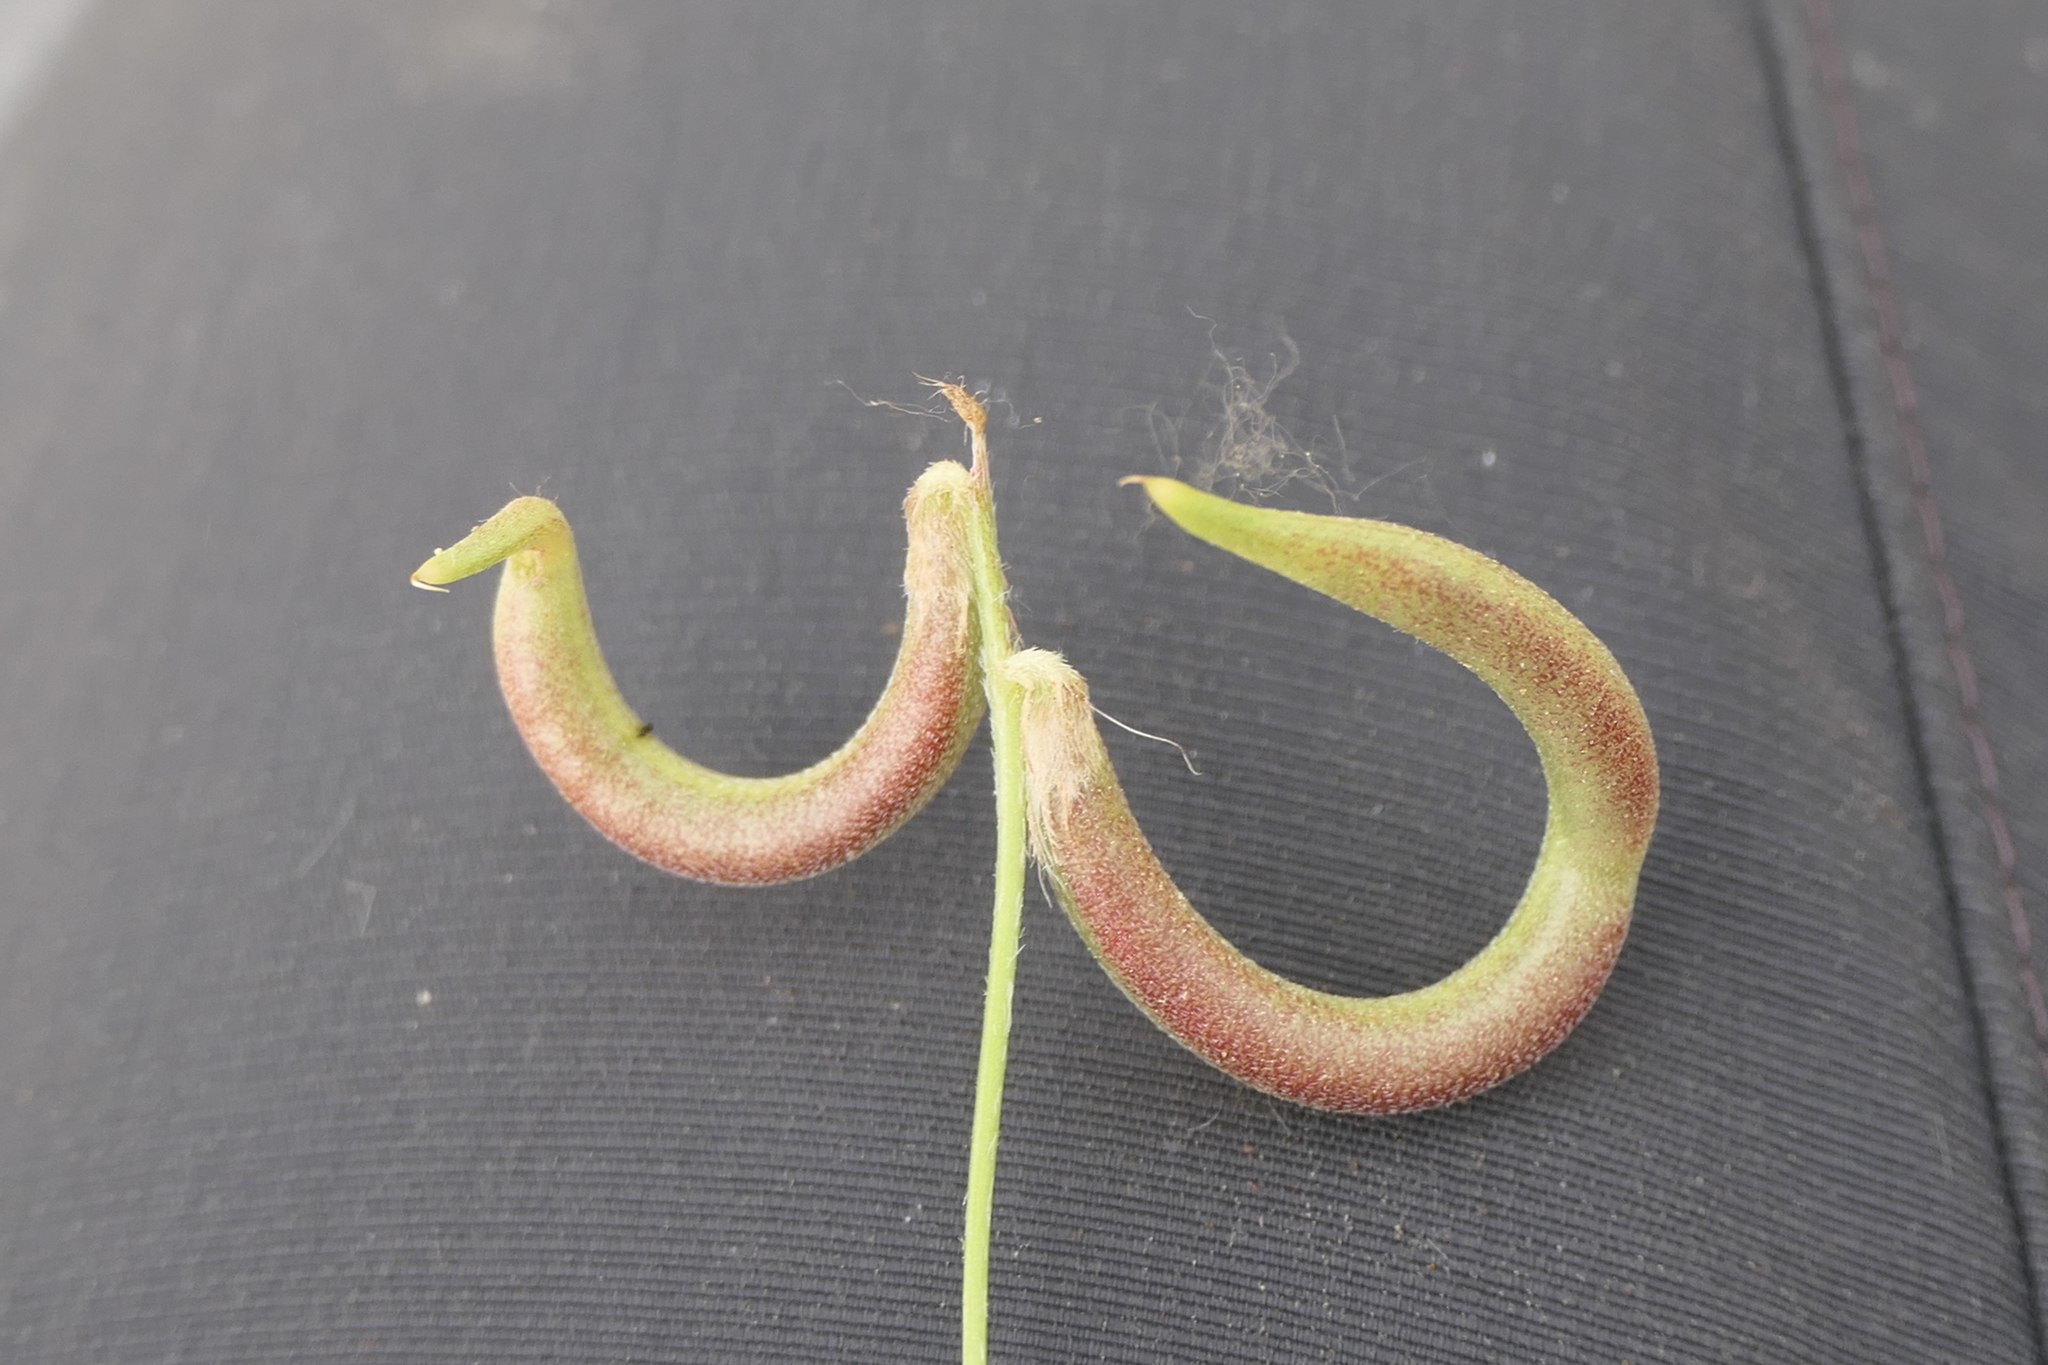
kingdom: Plantae
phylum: Tracheophyta
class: Magnoliopsida
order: Fabales
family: Fabaceae
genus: Astragalus
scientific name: Astragalus hamosus
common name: European milkvetch
